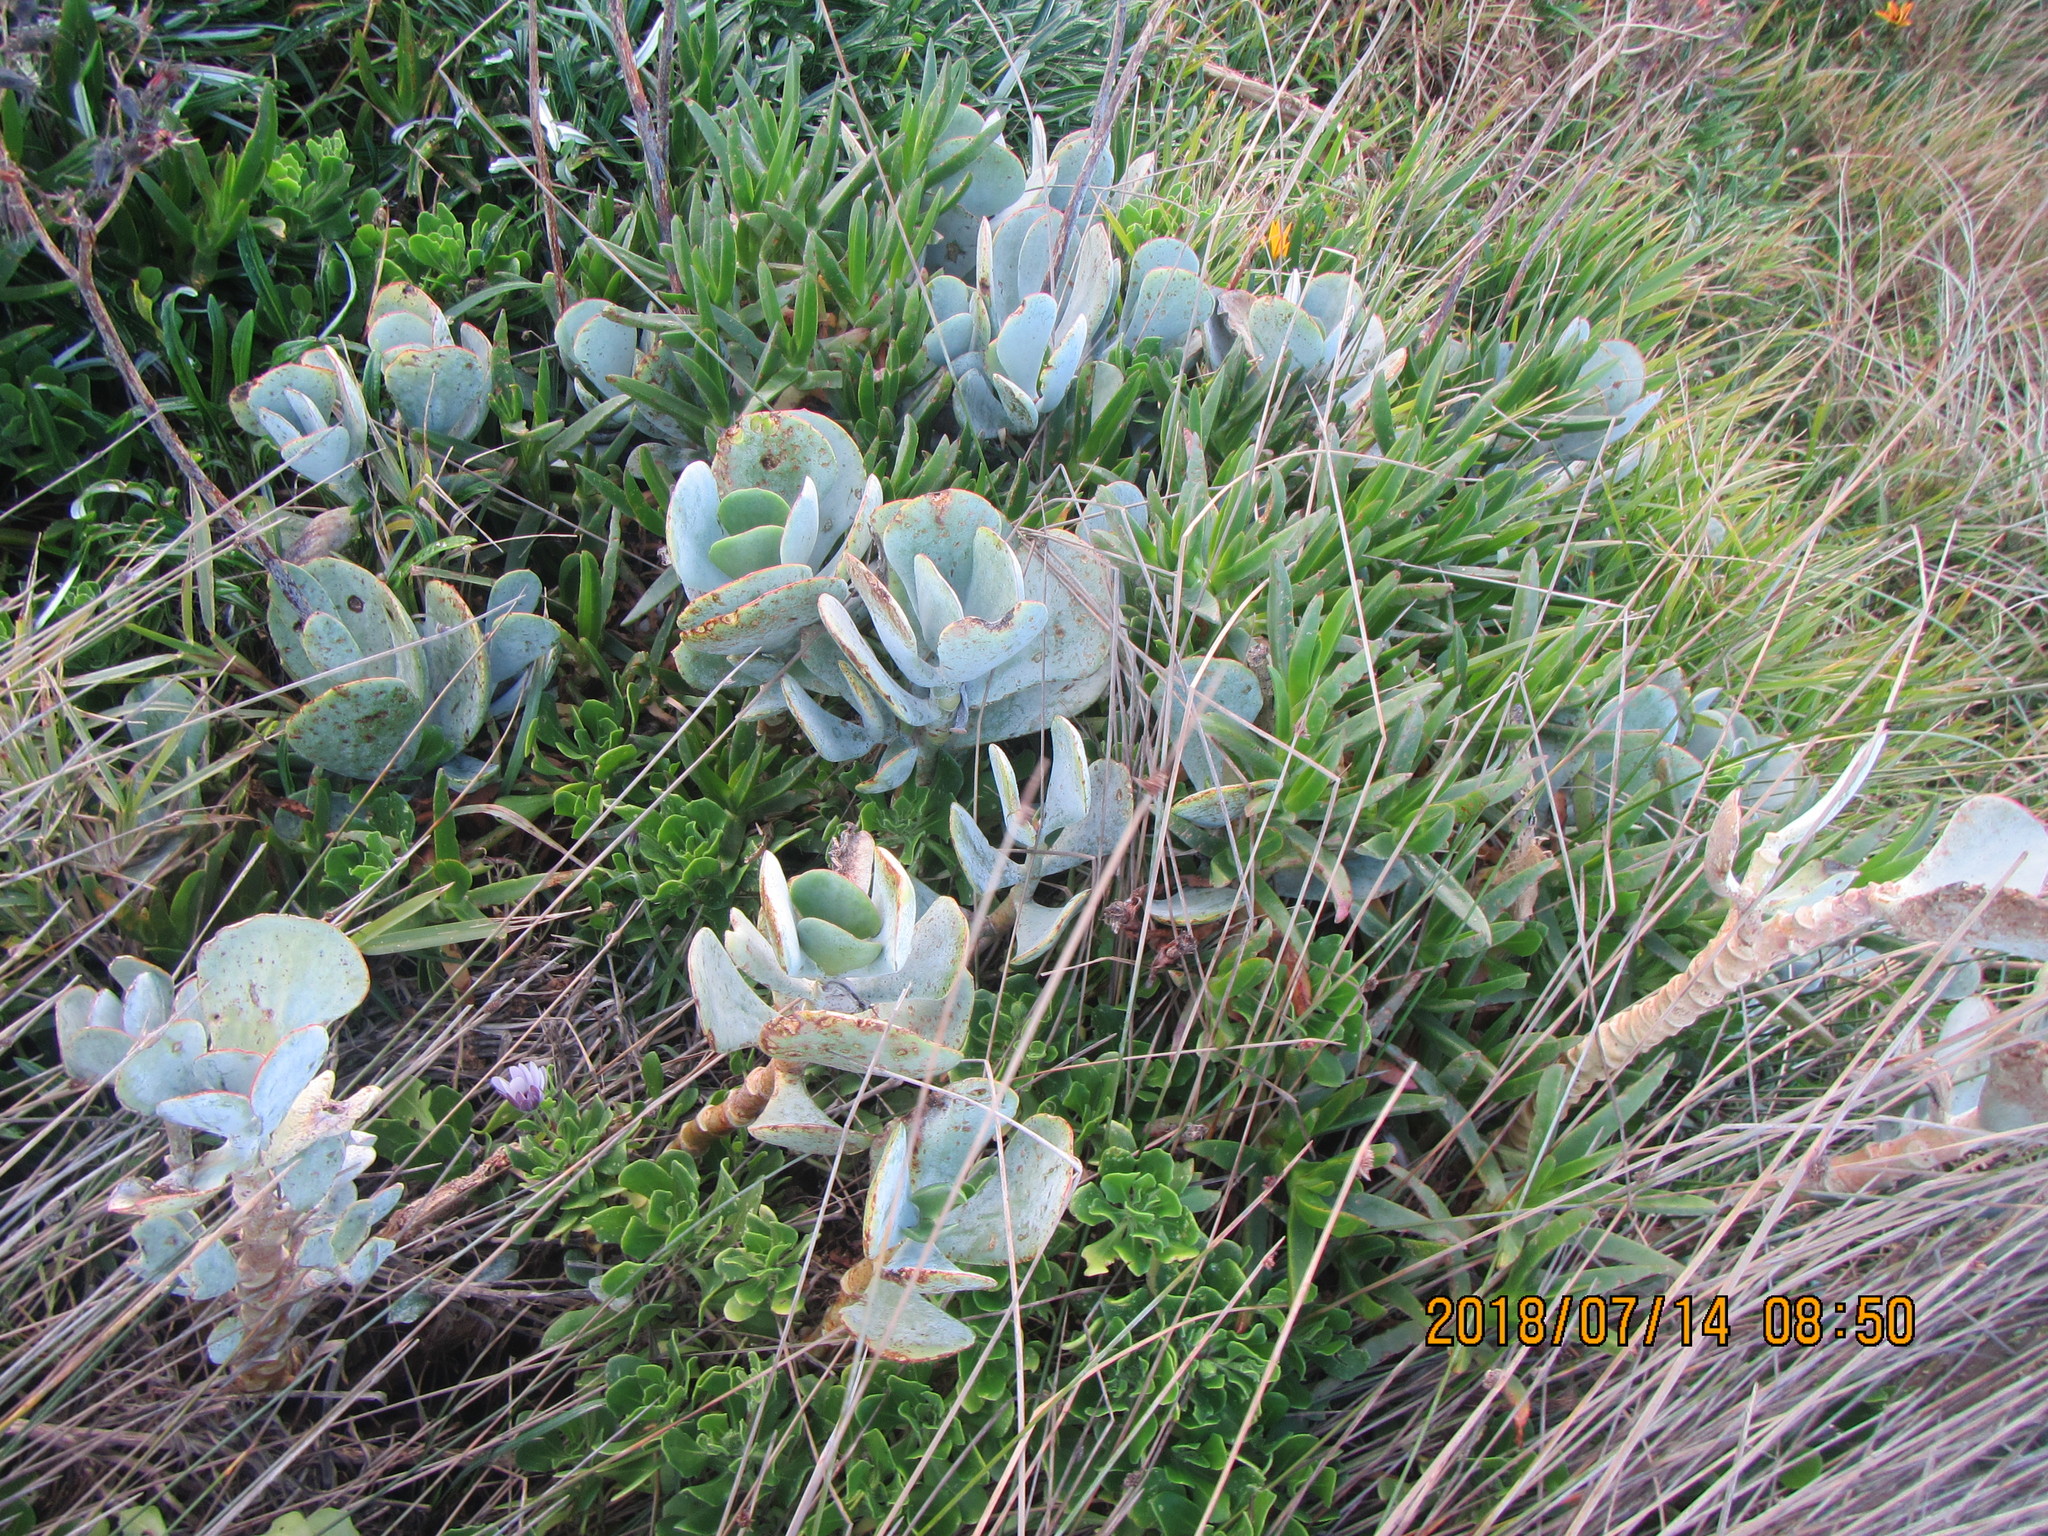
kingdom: Plantae
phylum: Tracheophyta
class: Magnoliopsida
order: Saxifragales
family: Crassulaceae
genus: Cotyledon
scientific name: Cotyledon orbiculata
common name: Pig's ear
